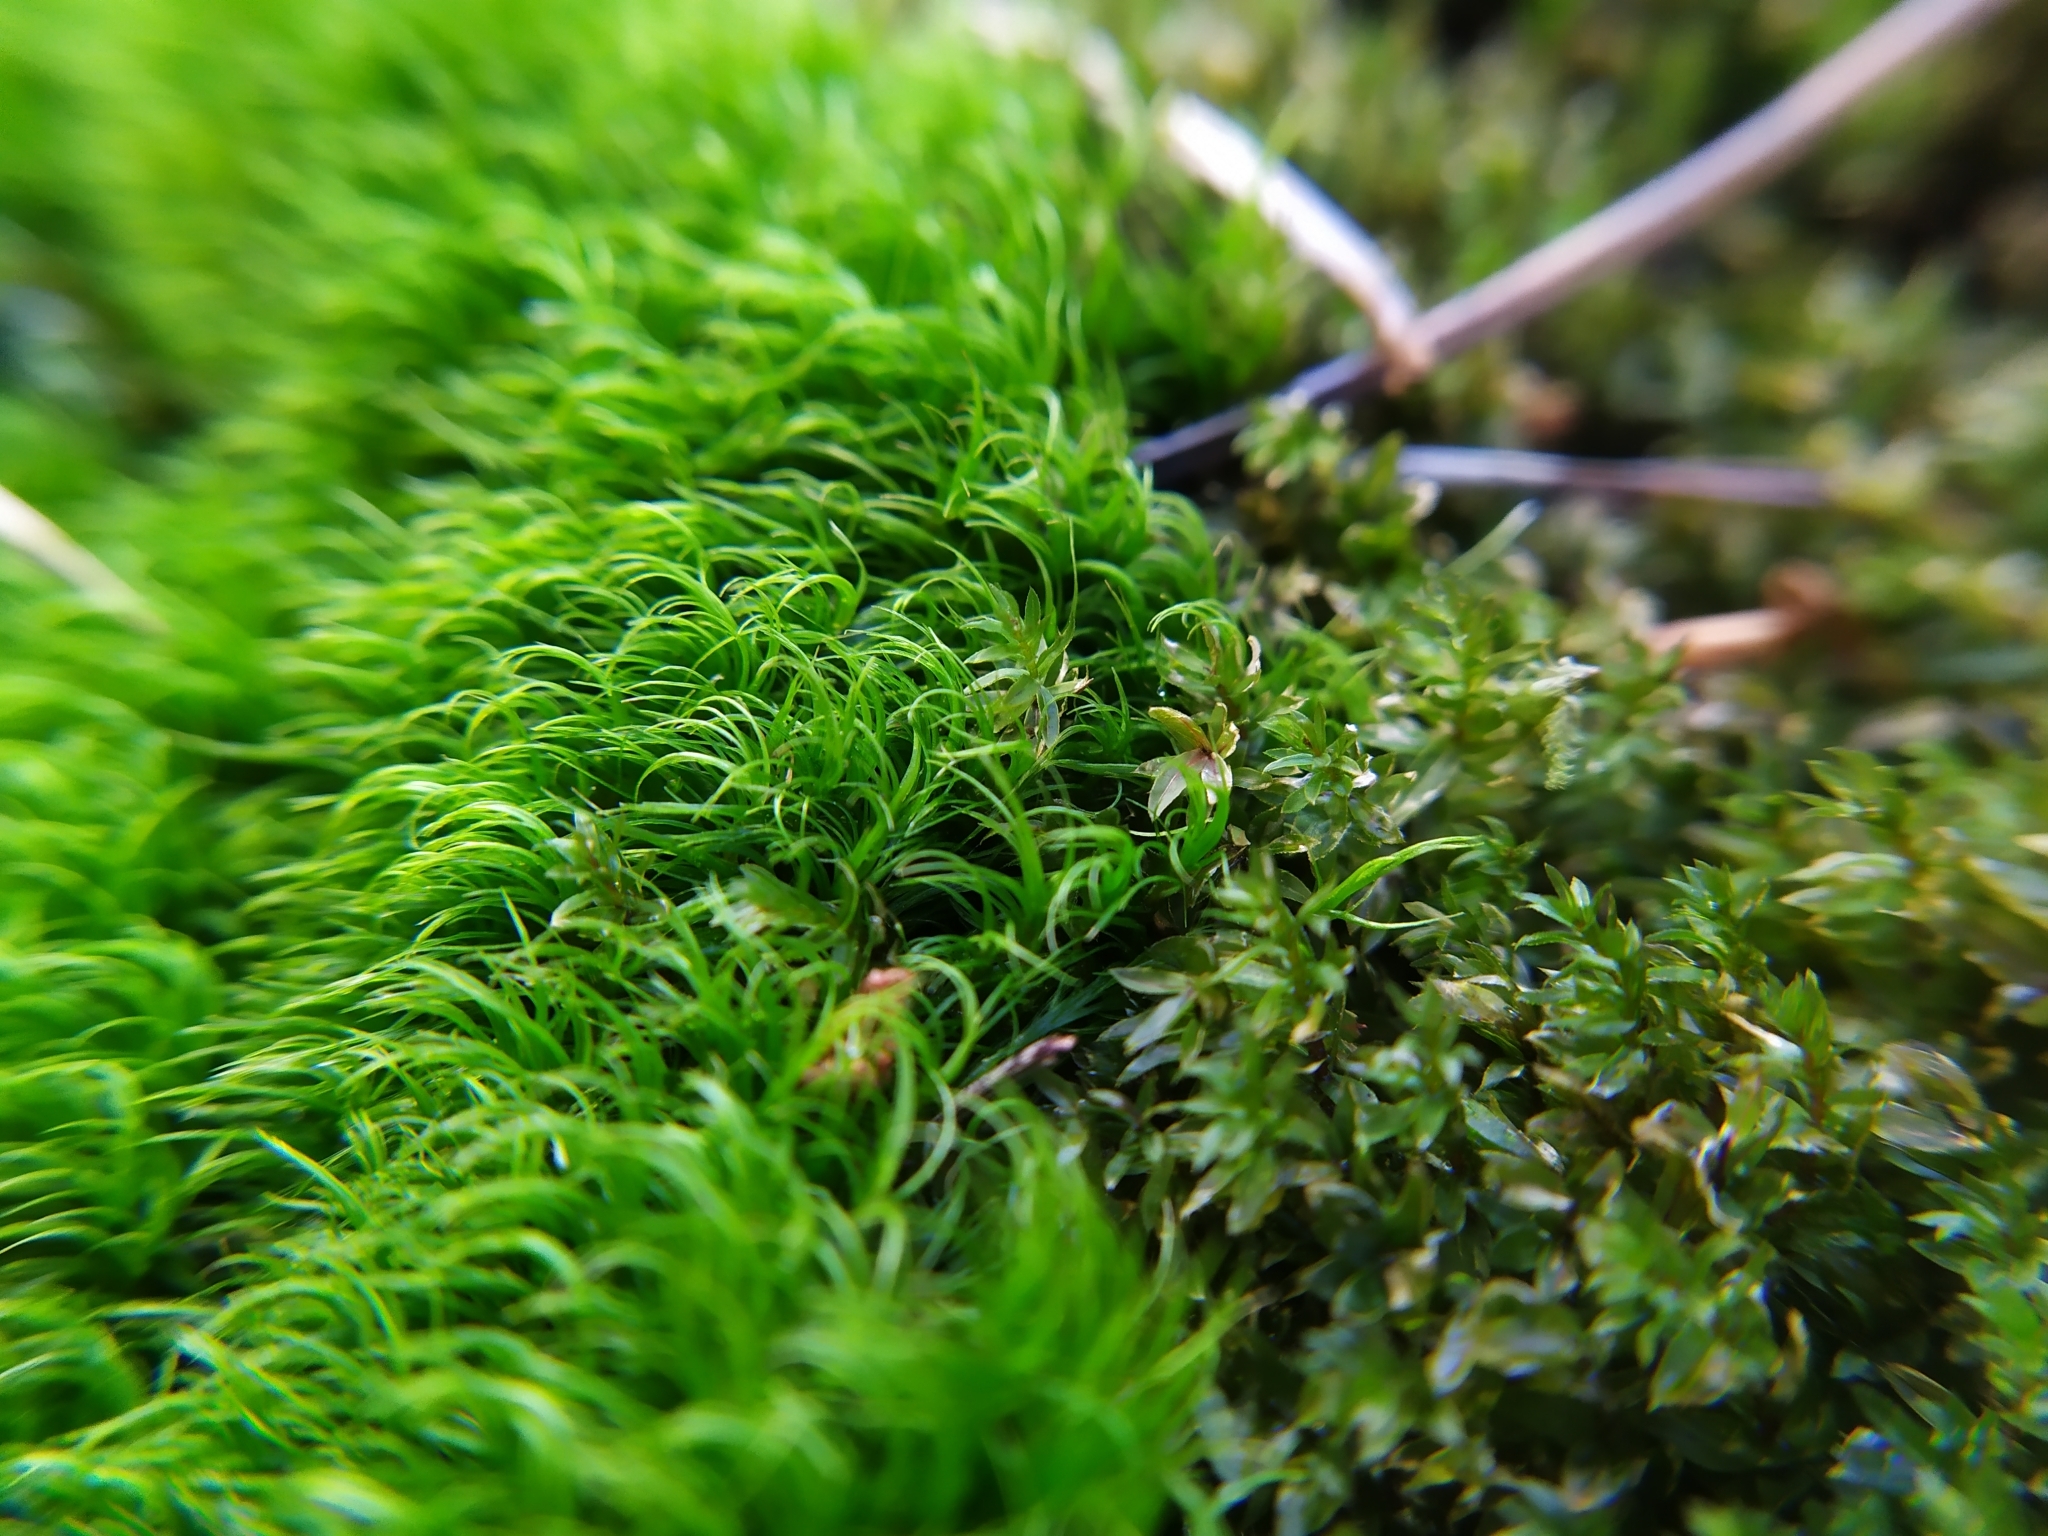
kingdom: Plantae
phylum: Bryophyta
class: Bryopsida
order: Dicranales
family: Dicranaceae
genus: Dicranum
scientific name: Dicranum scoparium
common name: Broom fork-moss
